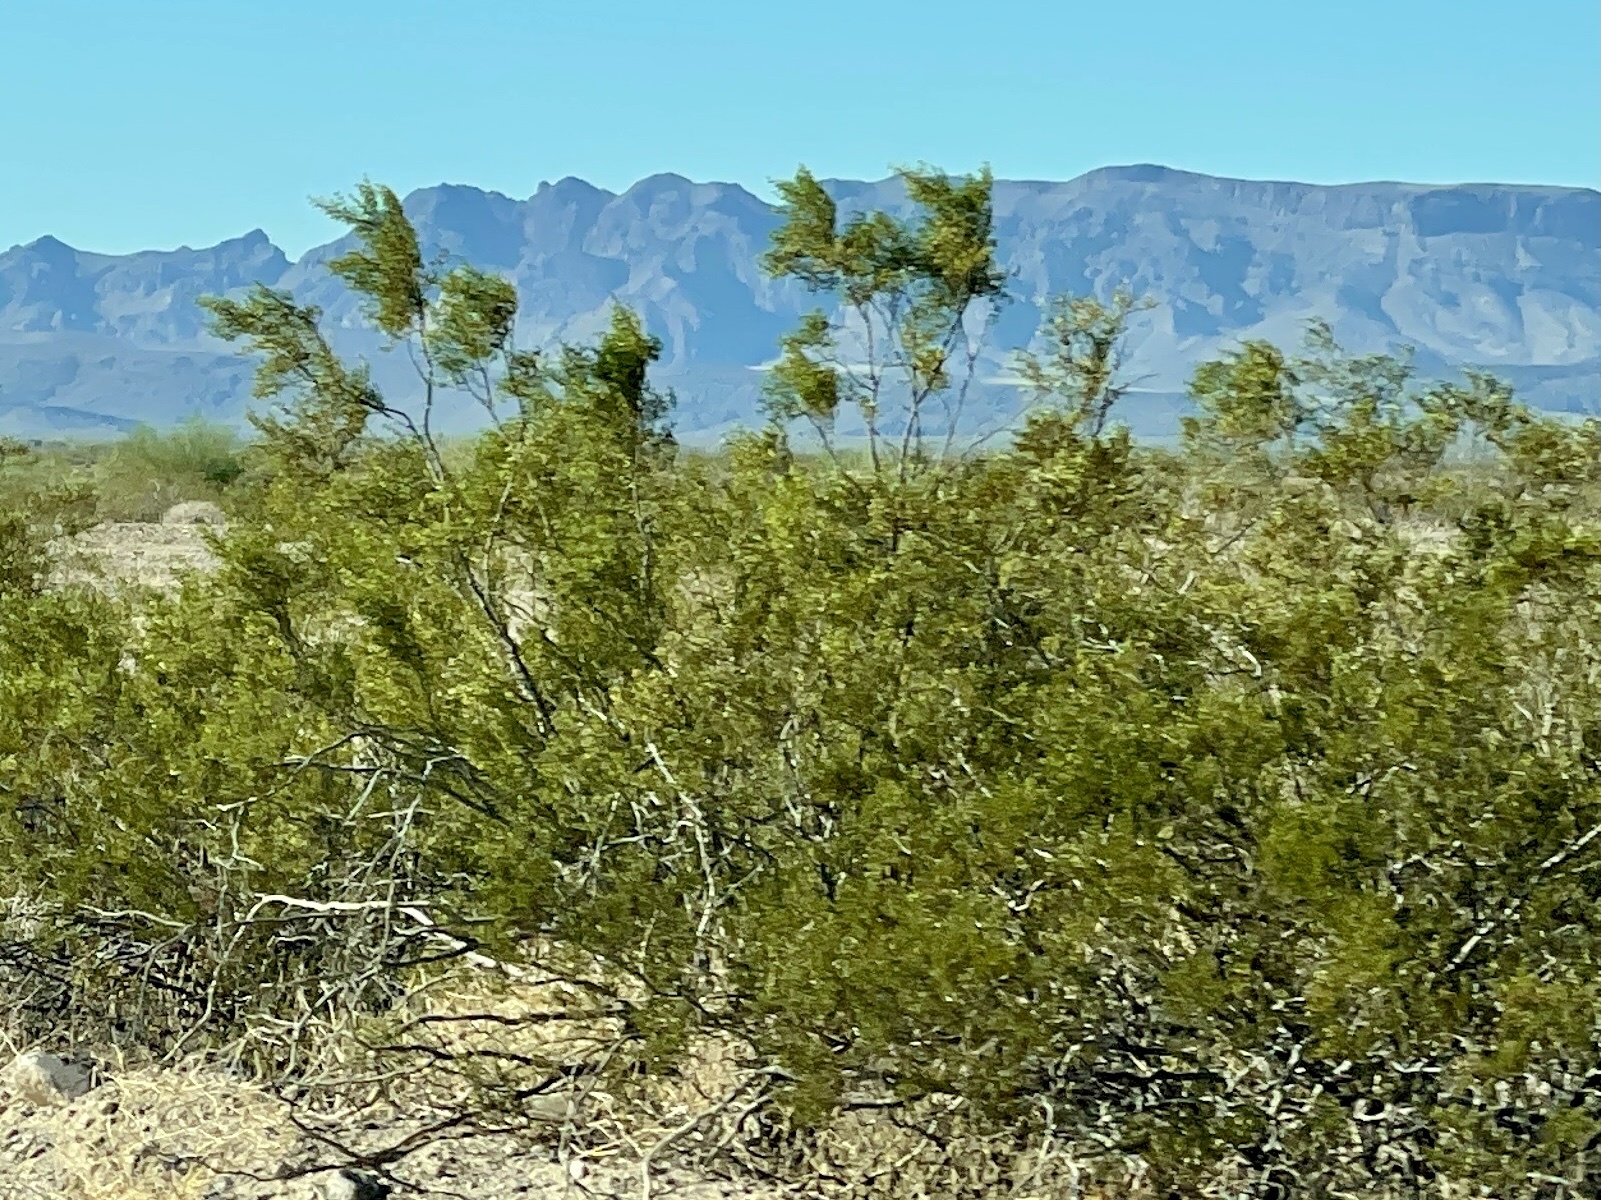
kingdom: Plantae
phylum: Tracheophyta
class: Magnoliopsida
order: Zygophyllales
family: Zygophyllaceae
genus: Larrea
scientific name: Larrea tridentata
